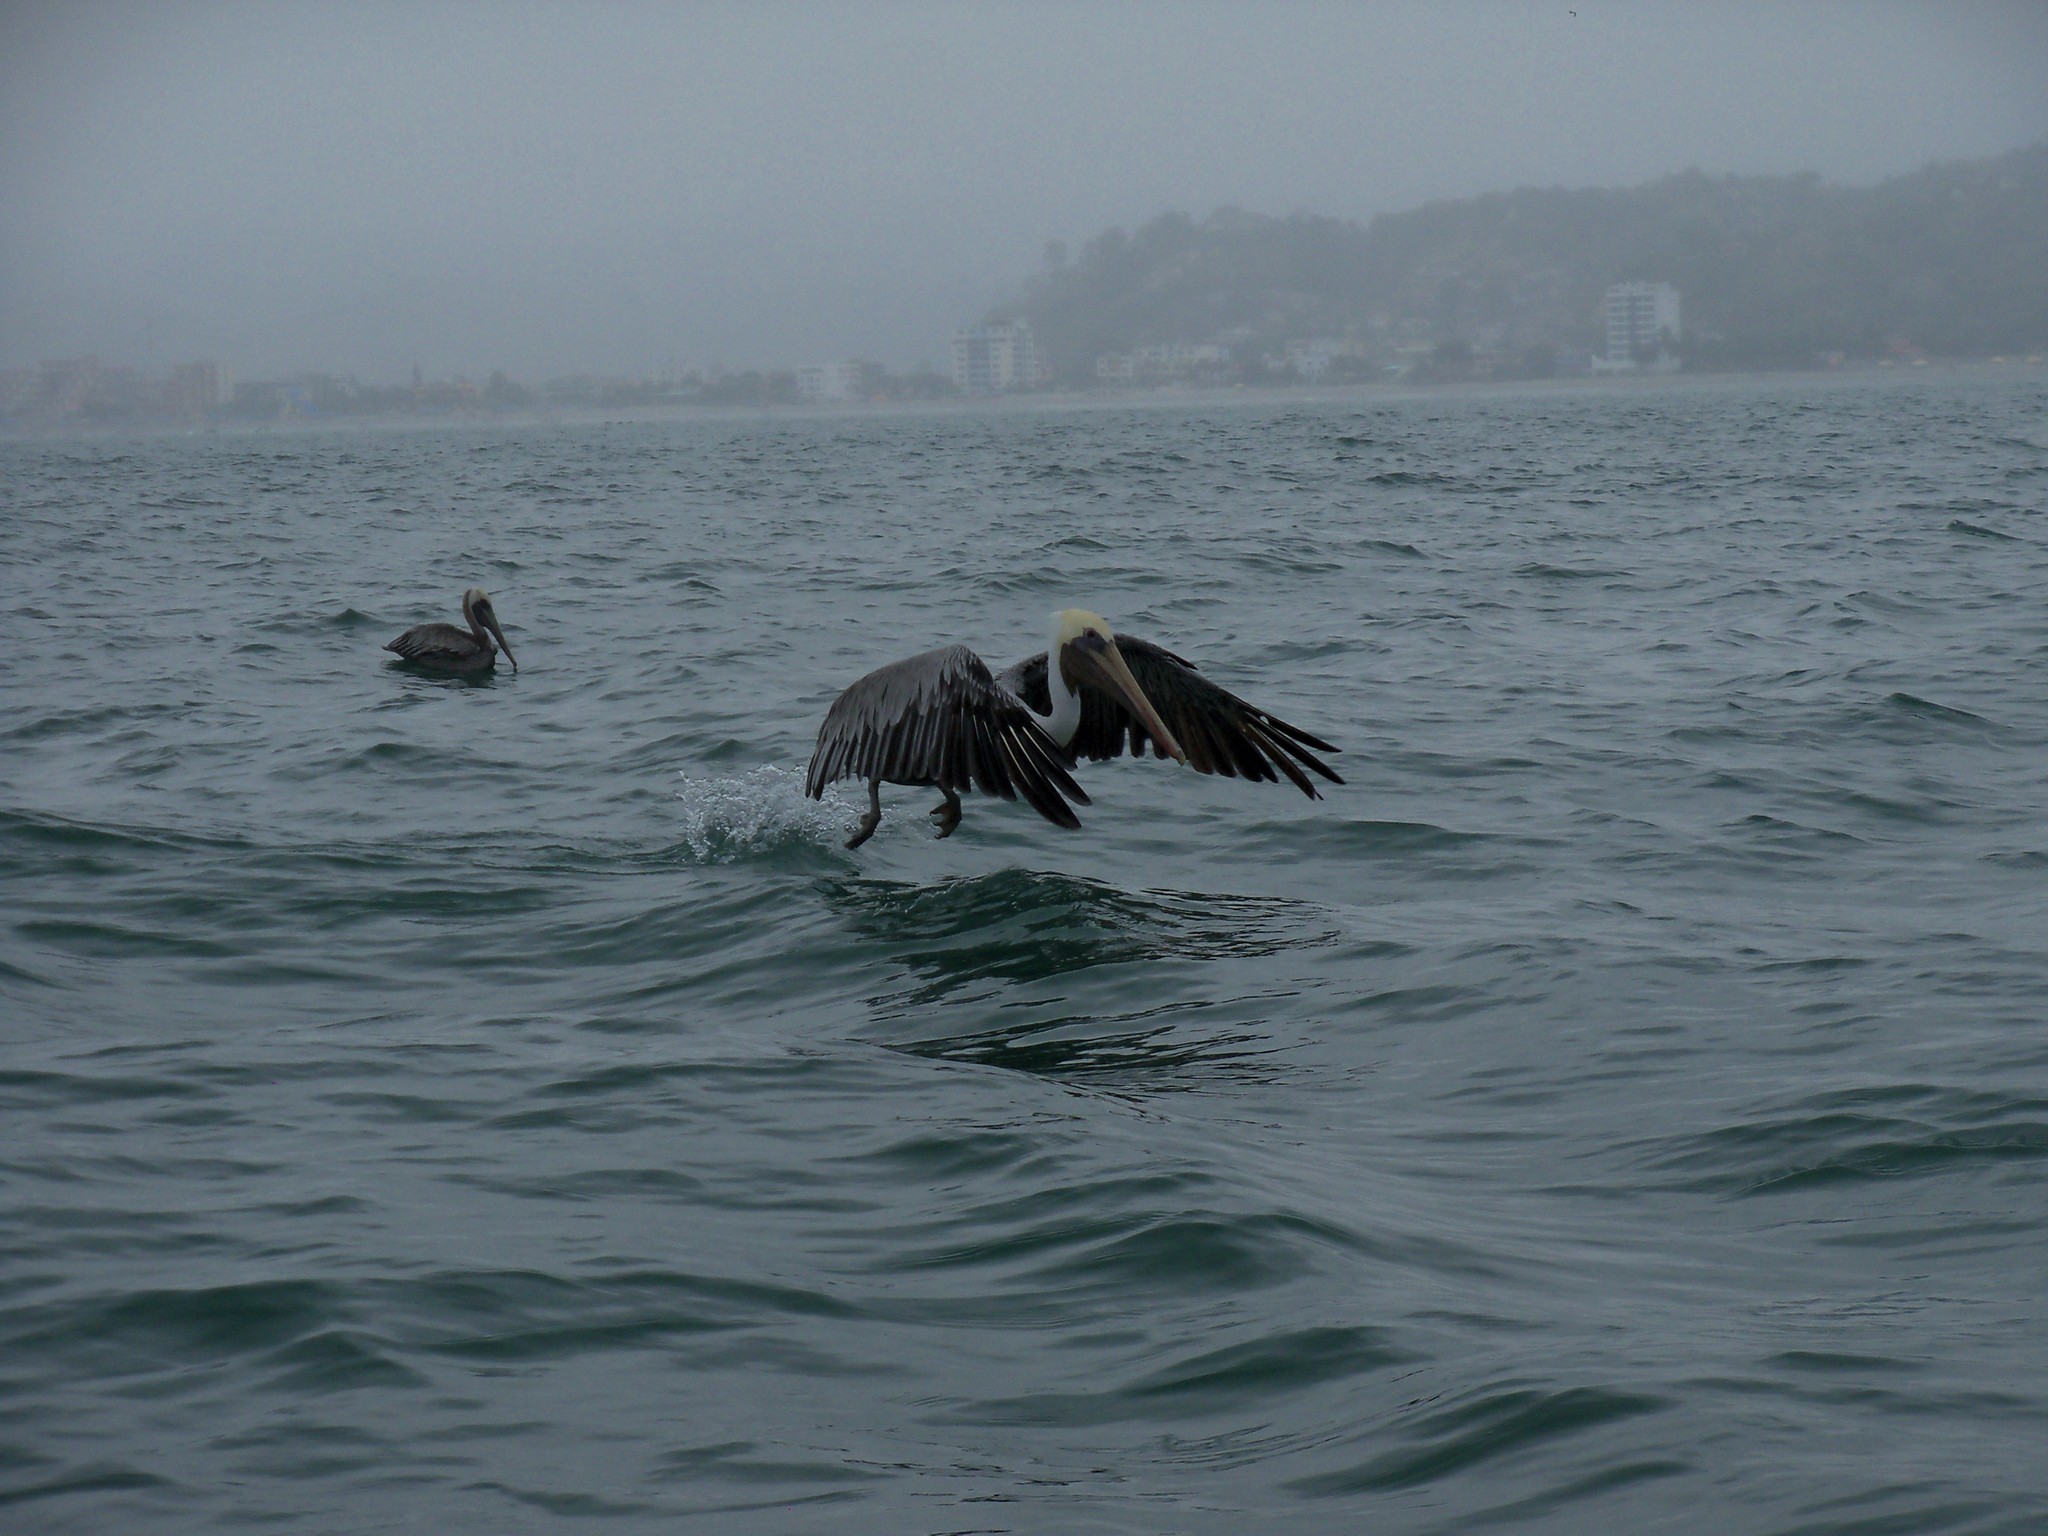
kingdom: Animalia
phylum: Chordata
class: Aves
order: Pelecaniformes
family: Pelecanidae
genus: Pelecanus
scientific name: Pelecanus occidentalis
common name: Brown pelican
